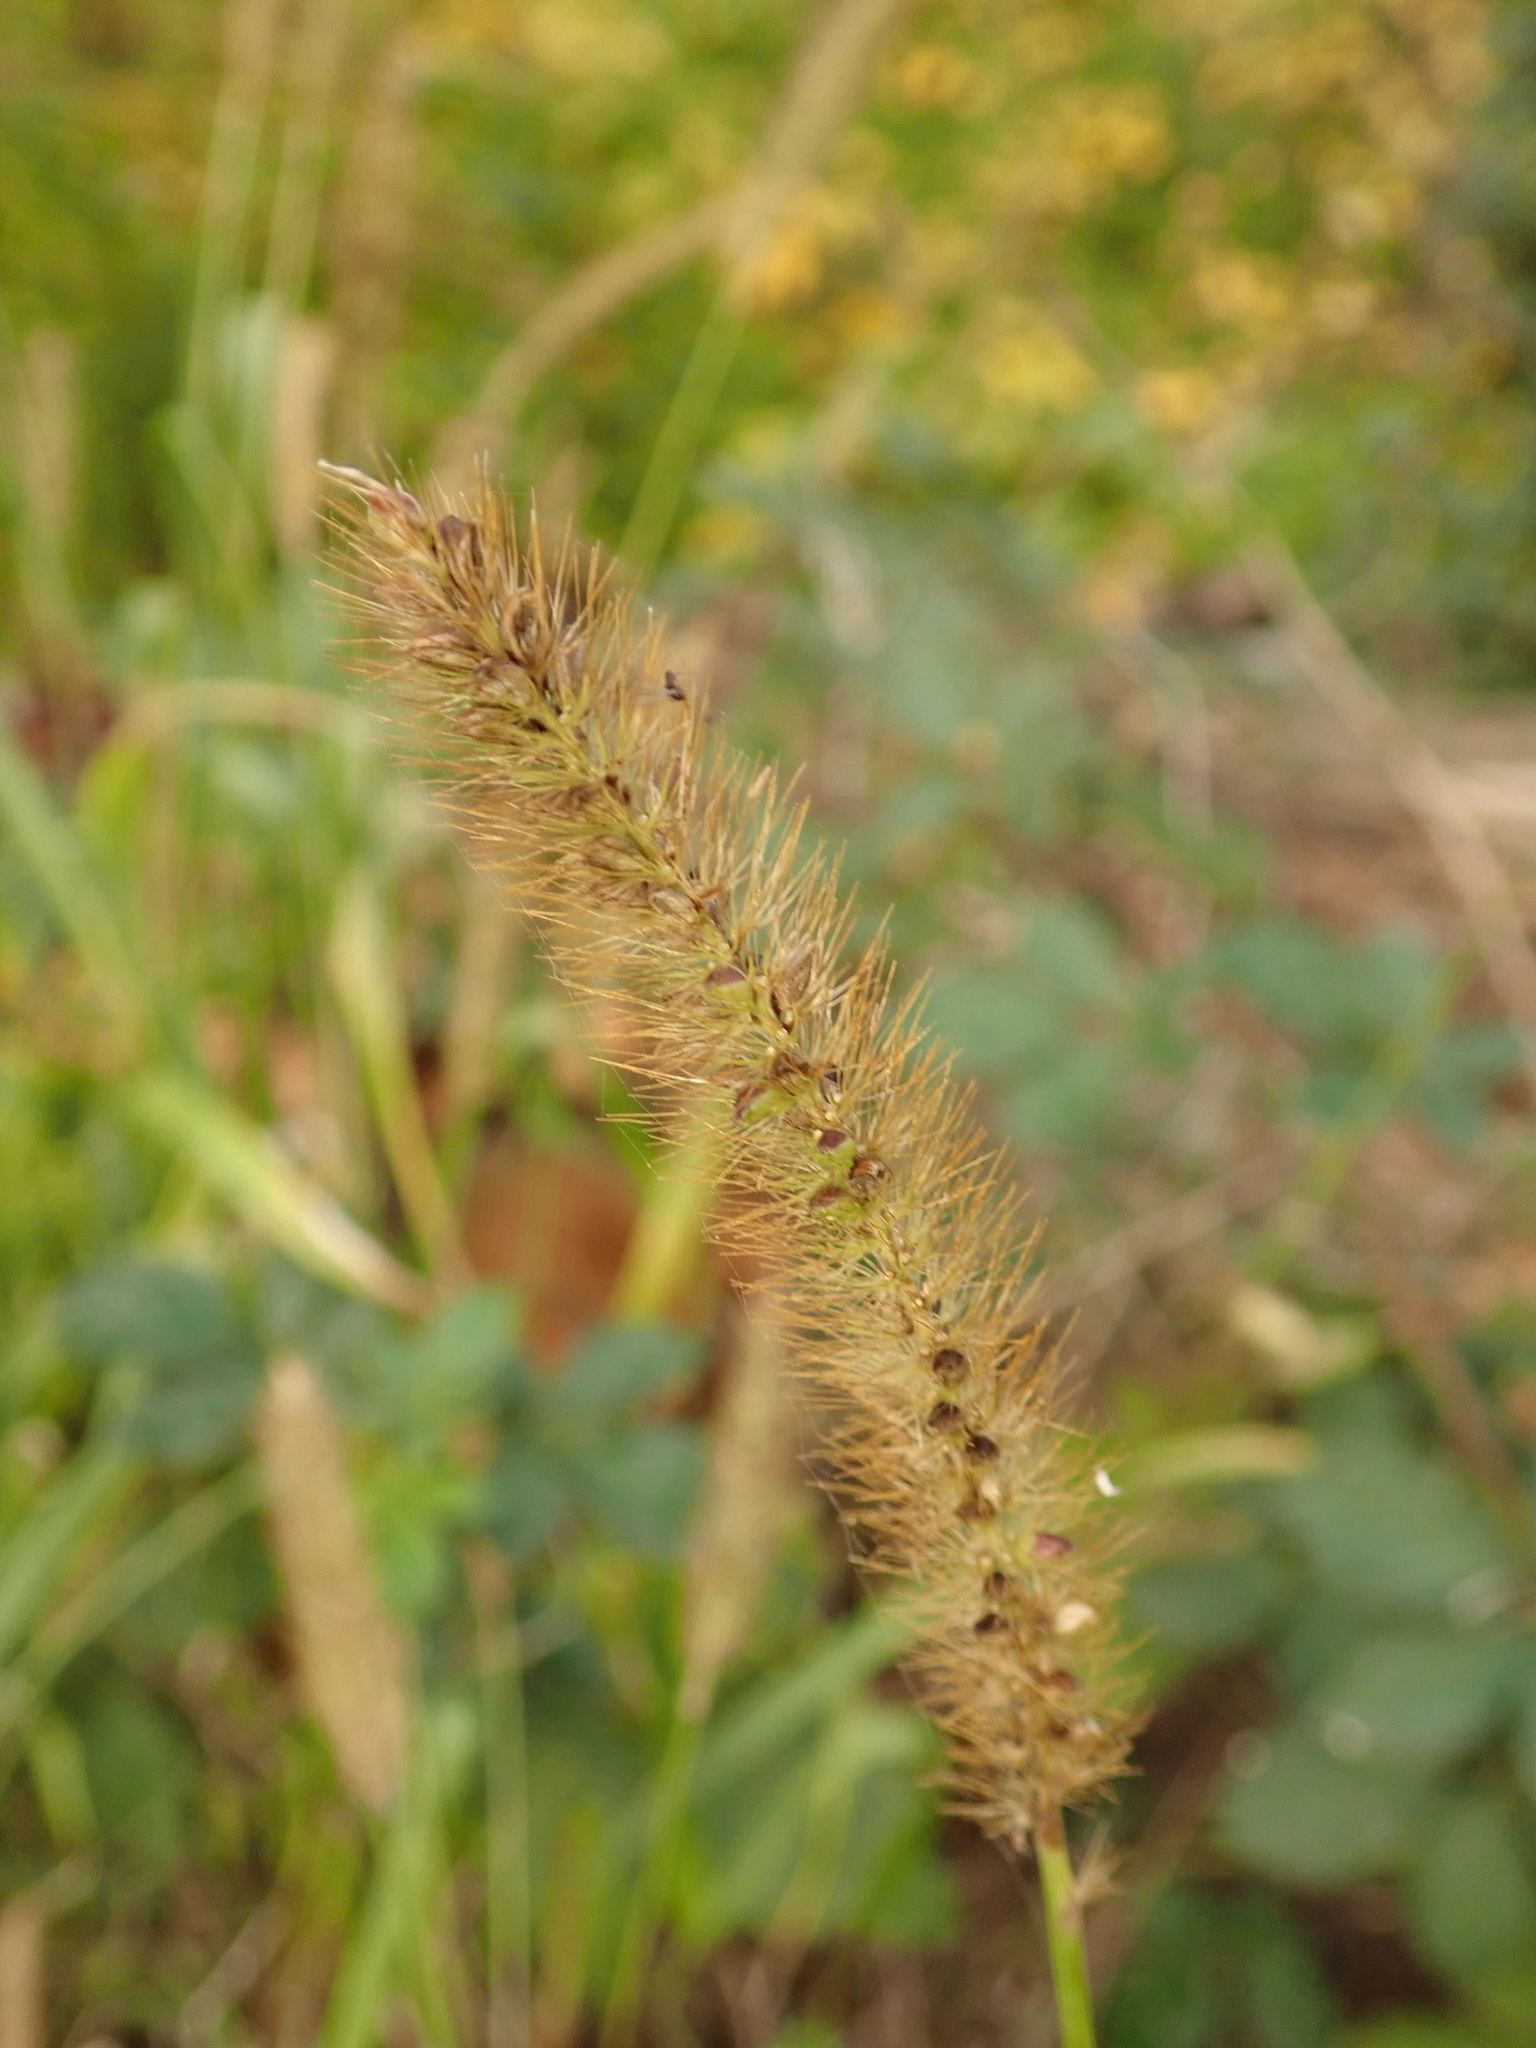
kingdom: Plantae
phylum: Tracheophyta
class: Liliopsida
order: Poales
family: Poaceae
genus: Setaria
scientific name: Setaria viridis
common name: Green bristlegrass
